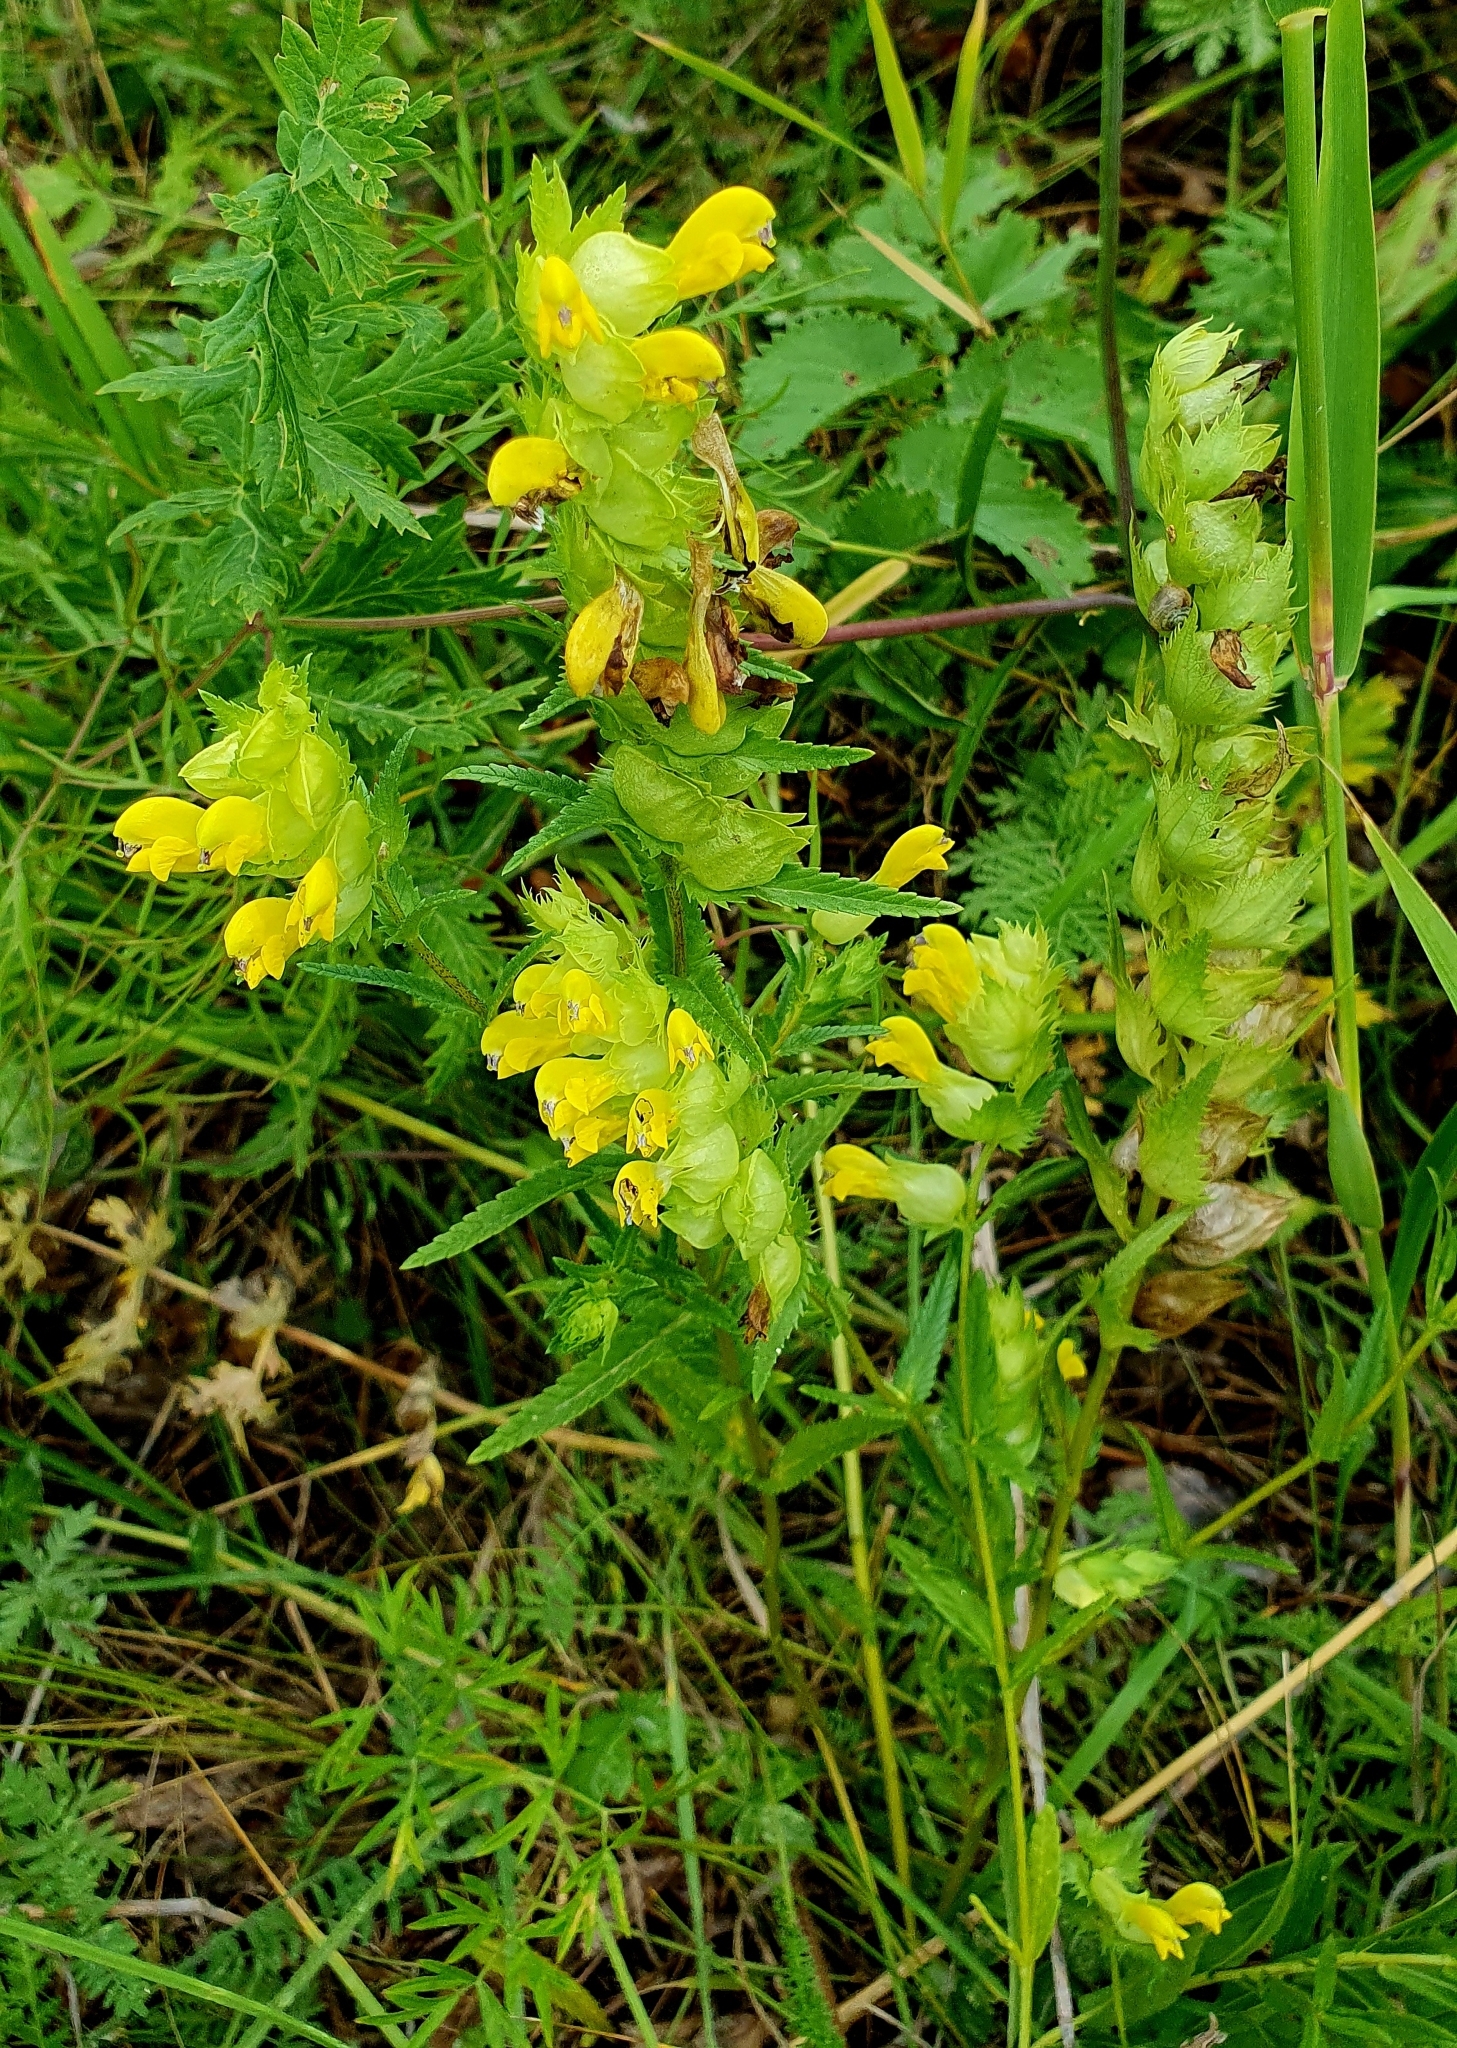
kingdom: Plantae
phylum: Tracheophyta
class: Magnoliopsida
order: Lamiales
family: Orobanchaceae
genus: Rhinanthus
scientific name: Rhinanthus serotinus
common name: Late-flowering yellow rattle
